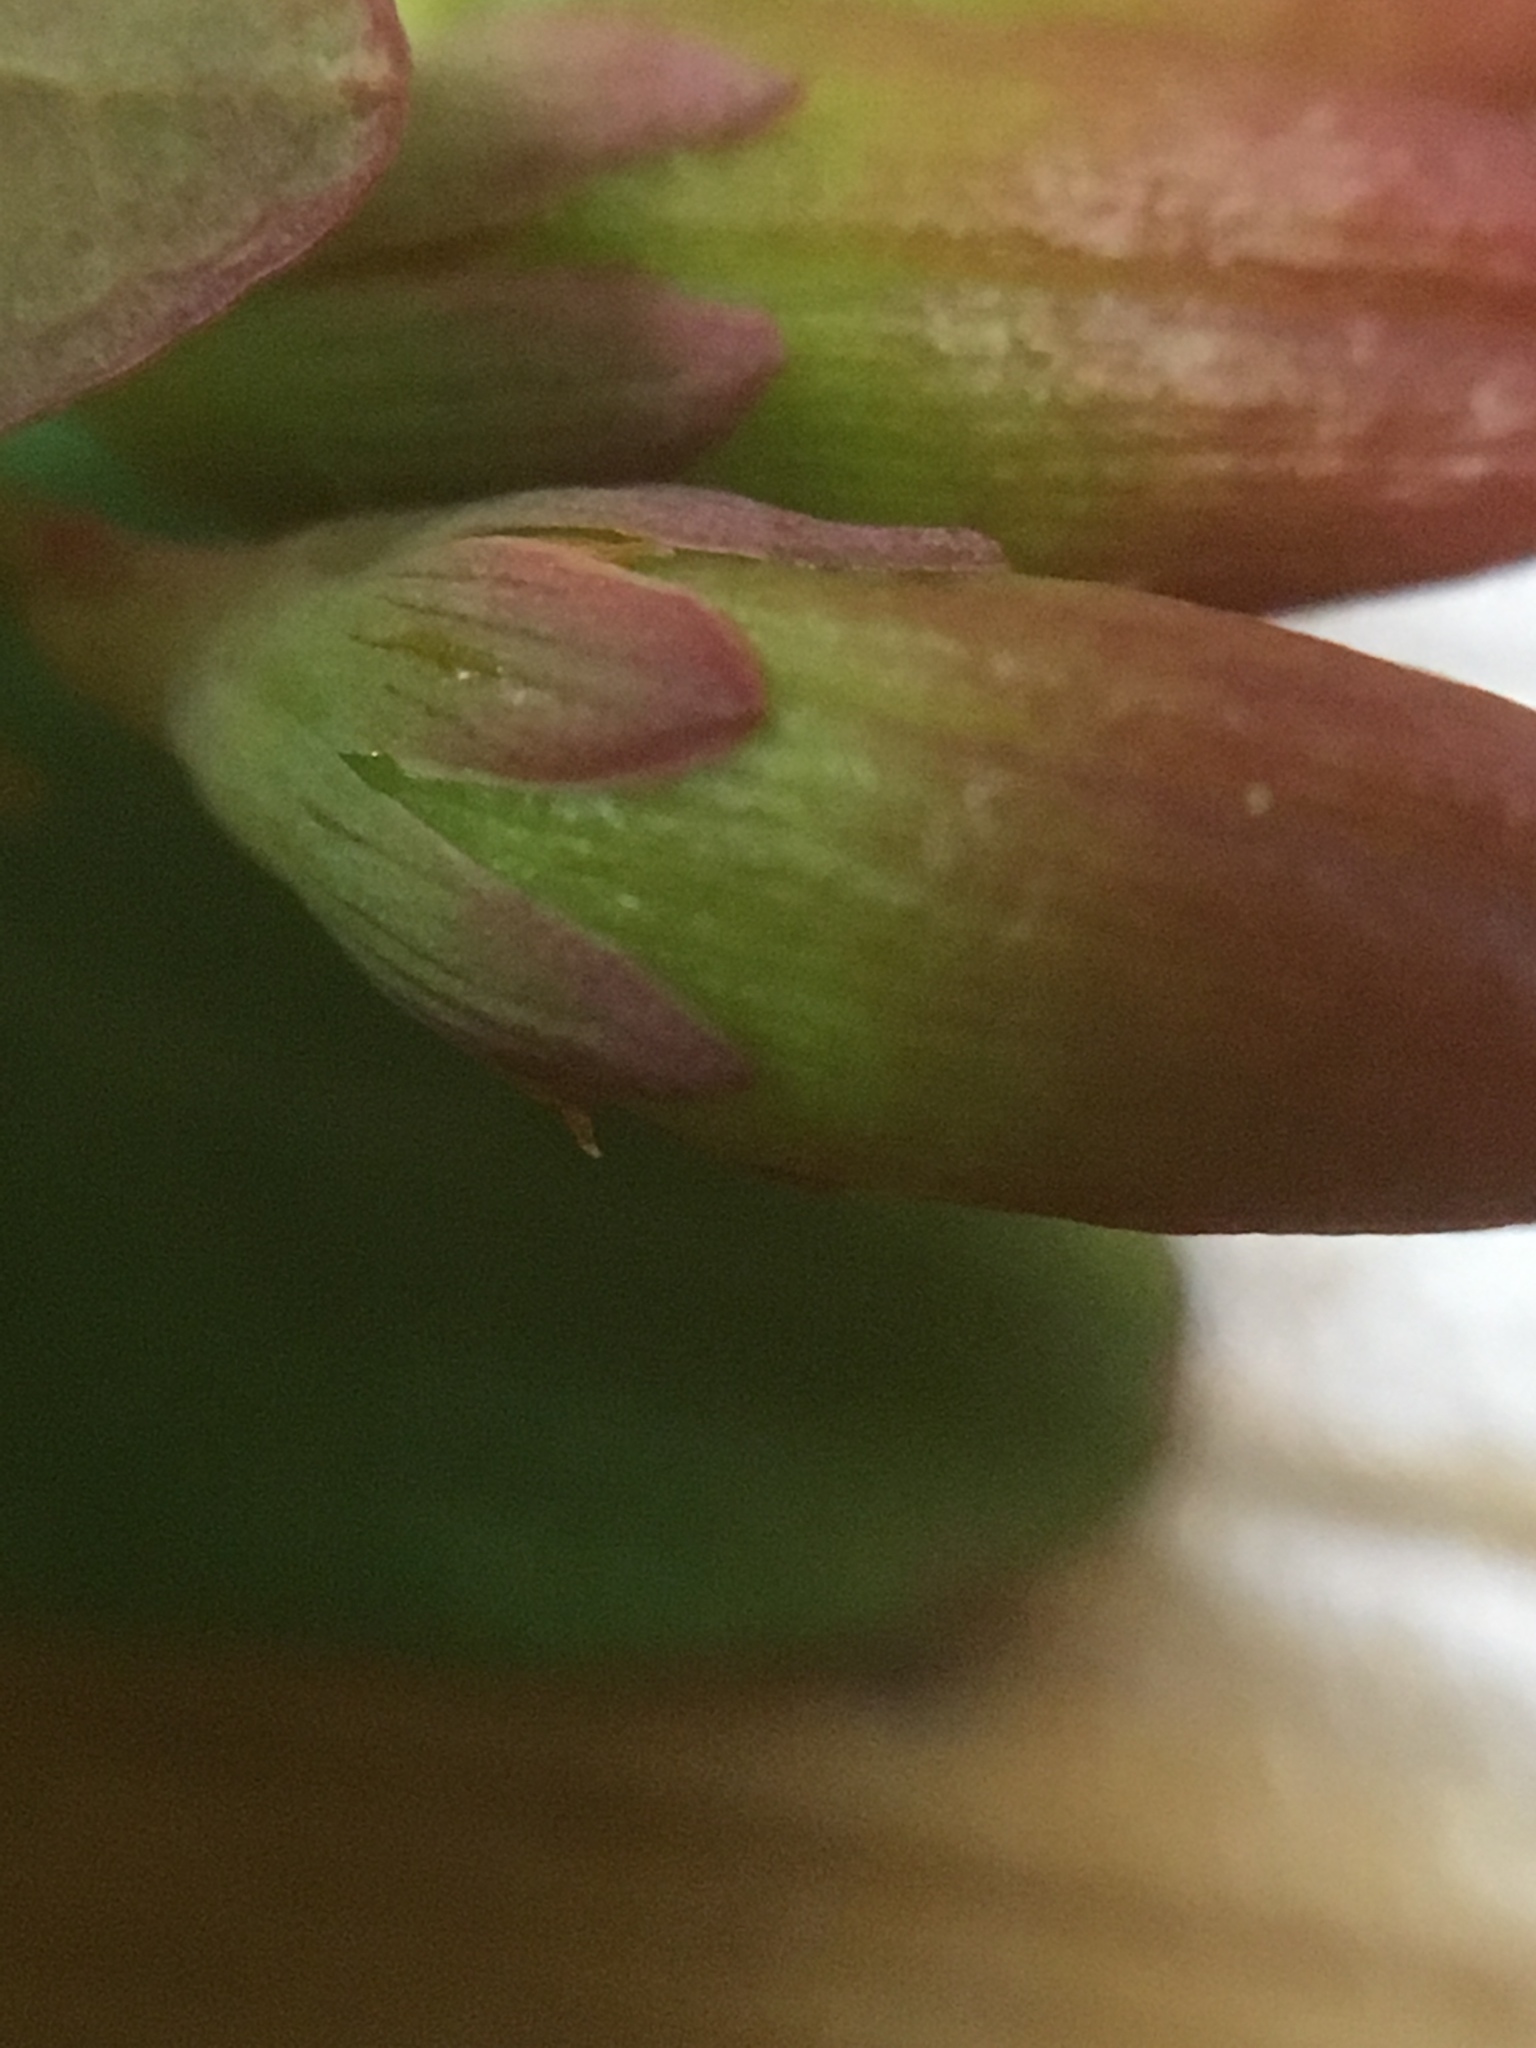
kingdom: Plantae
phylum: Tracheophyta
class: Magnoliopsida
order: Malpighiales
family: Hypericaceae
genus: Triadenum
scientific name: Triadenum fraseri
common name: Fraser's marsh st. johnswort
